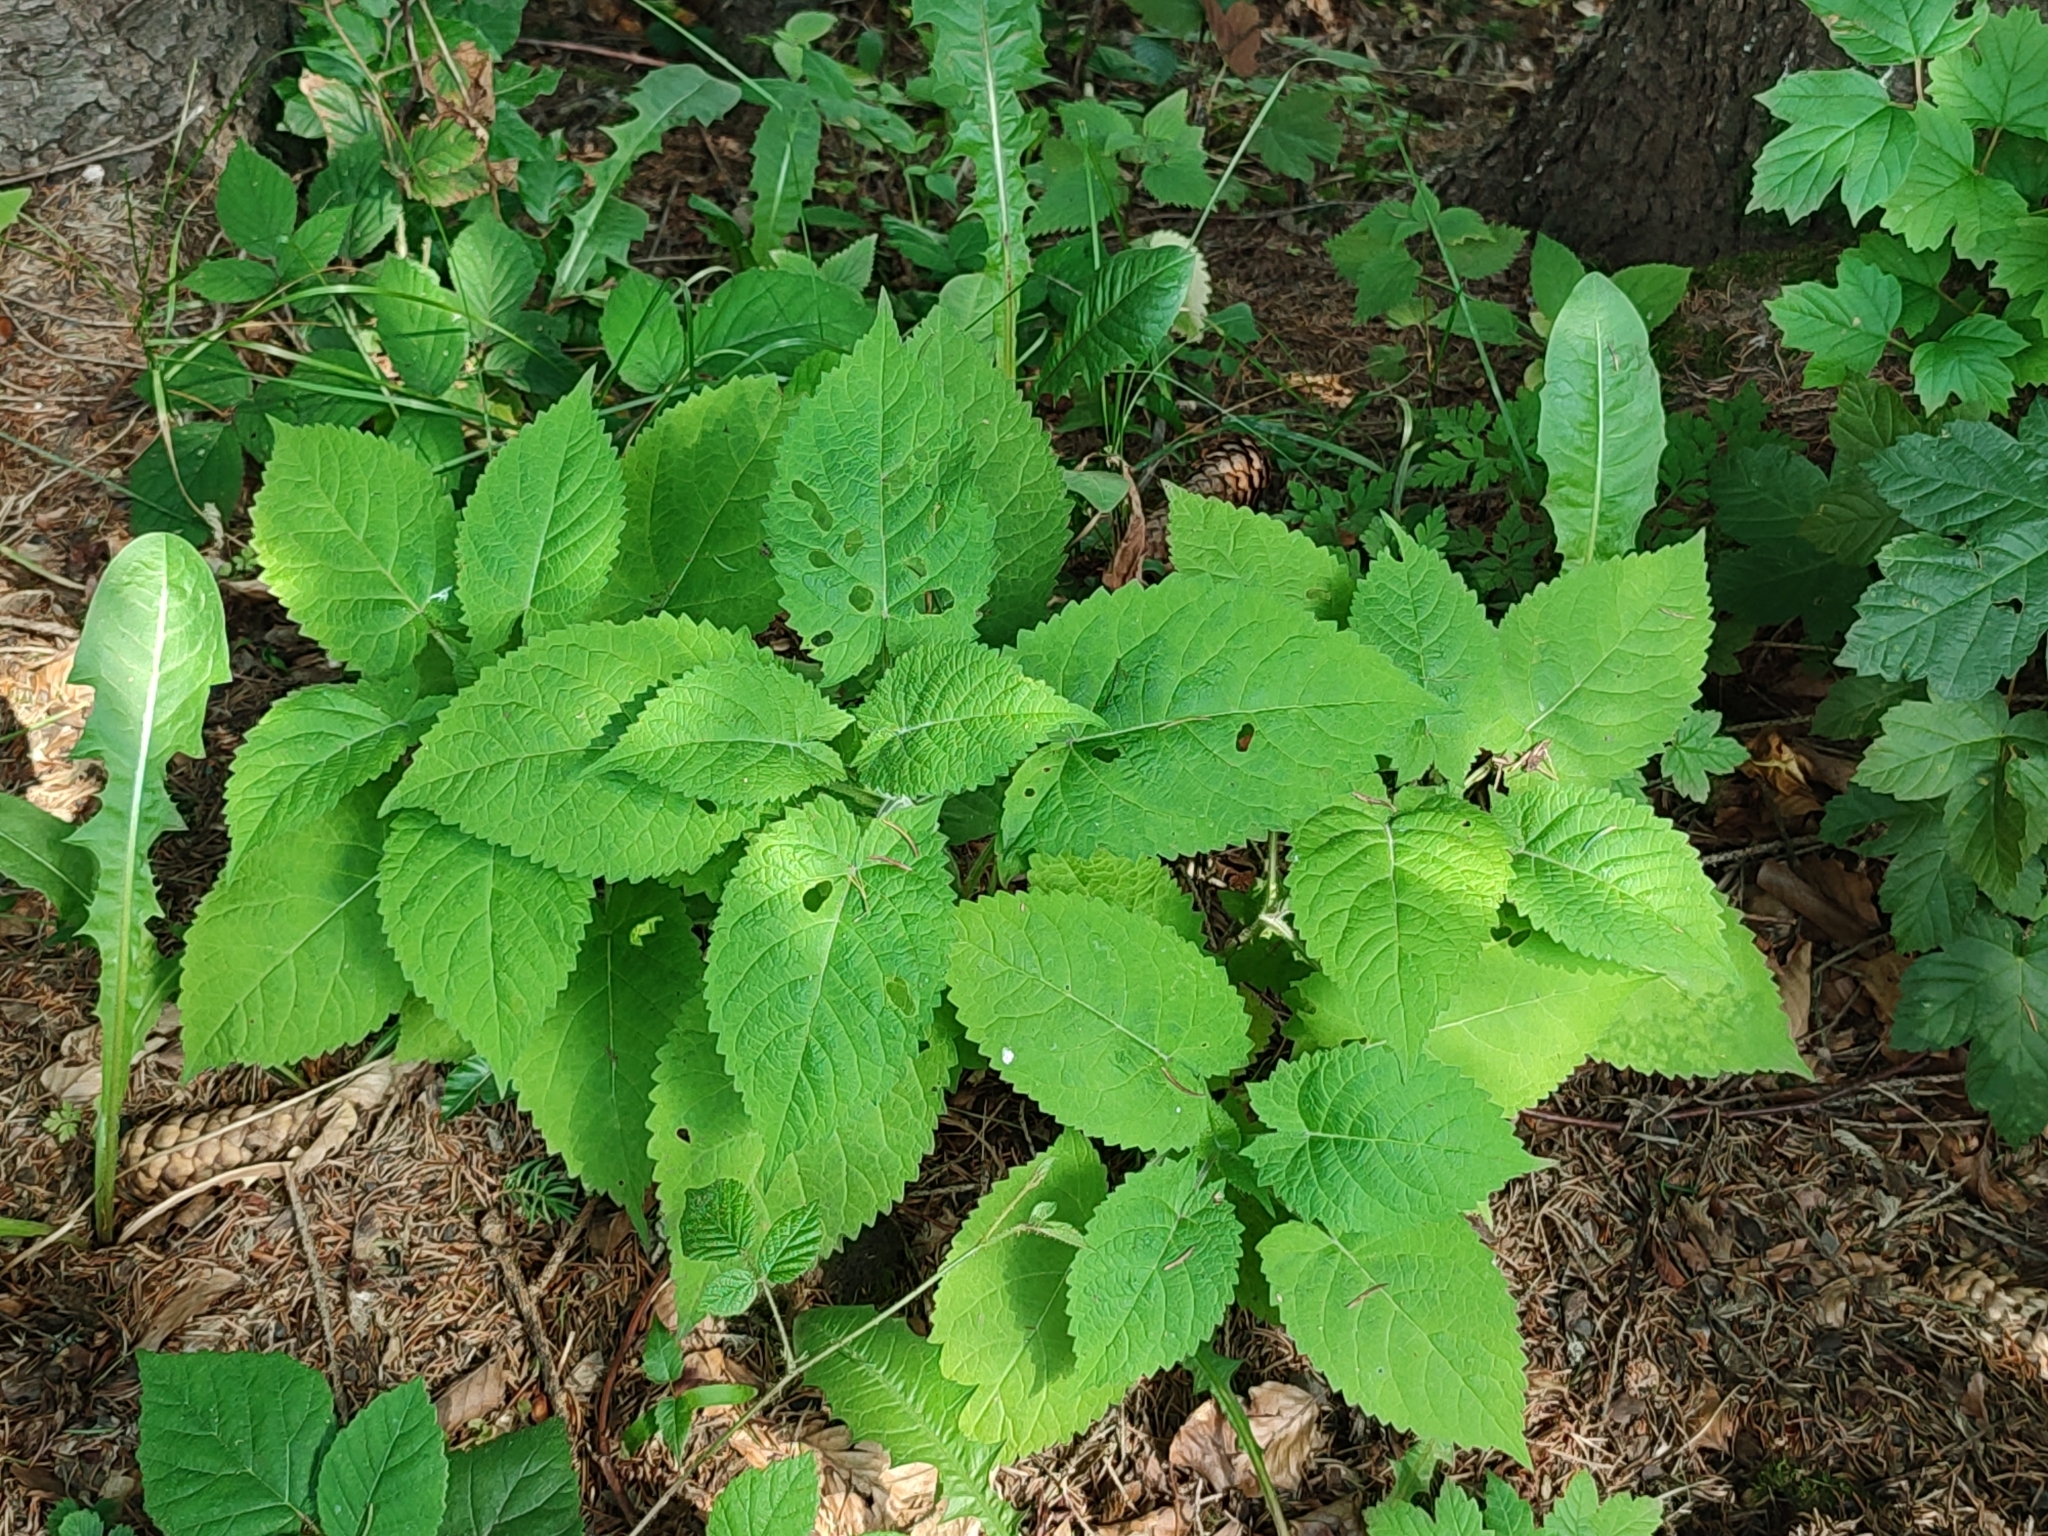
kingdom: Plantae
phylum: Tracheophyta
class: Magnoliopsida
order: Lamiales
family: Lamiaceae
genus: Salvia
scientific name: Salvia glutinosa
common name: Sticky clary
